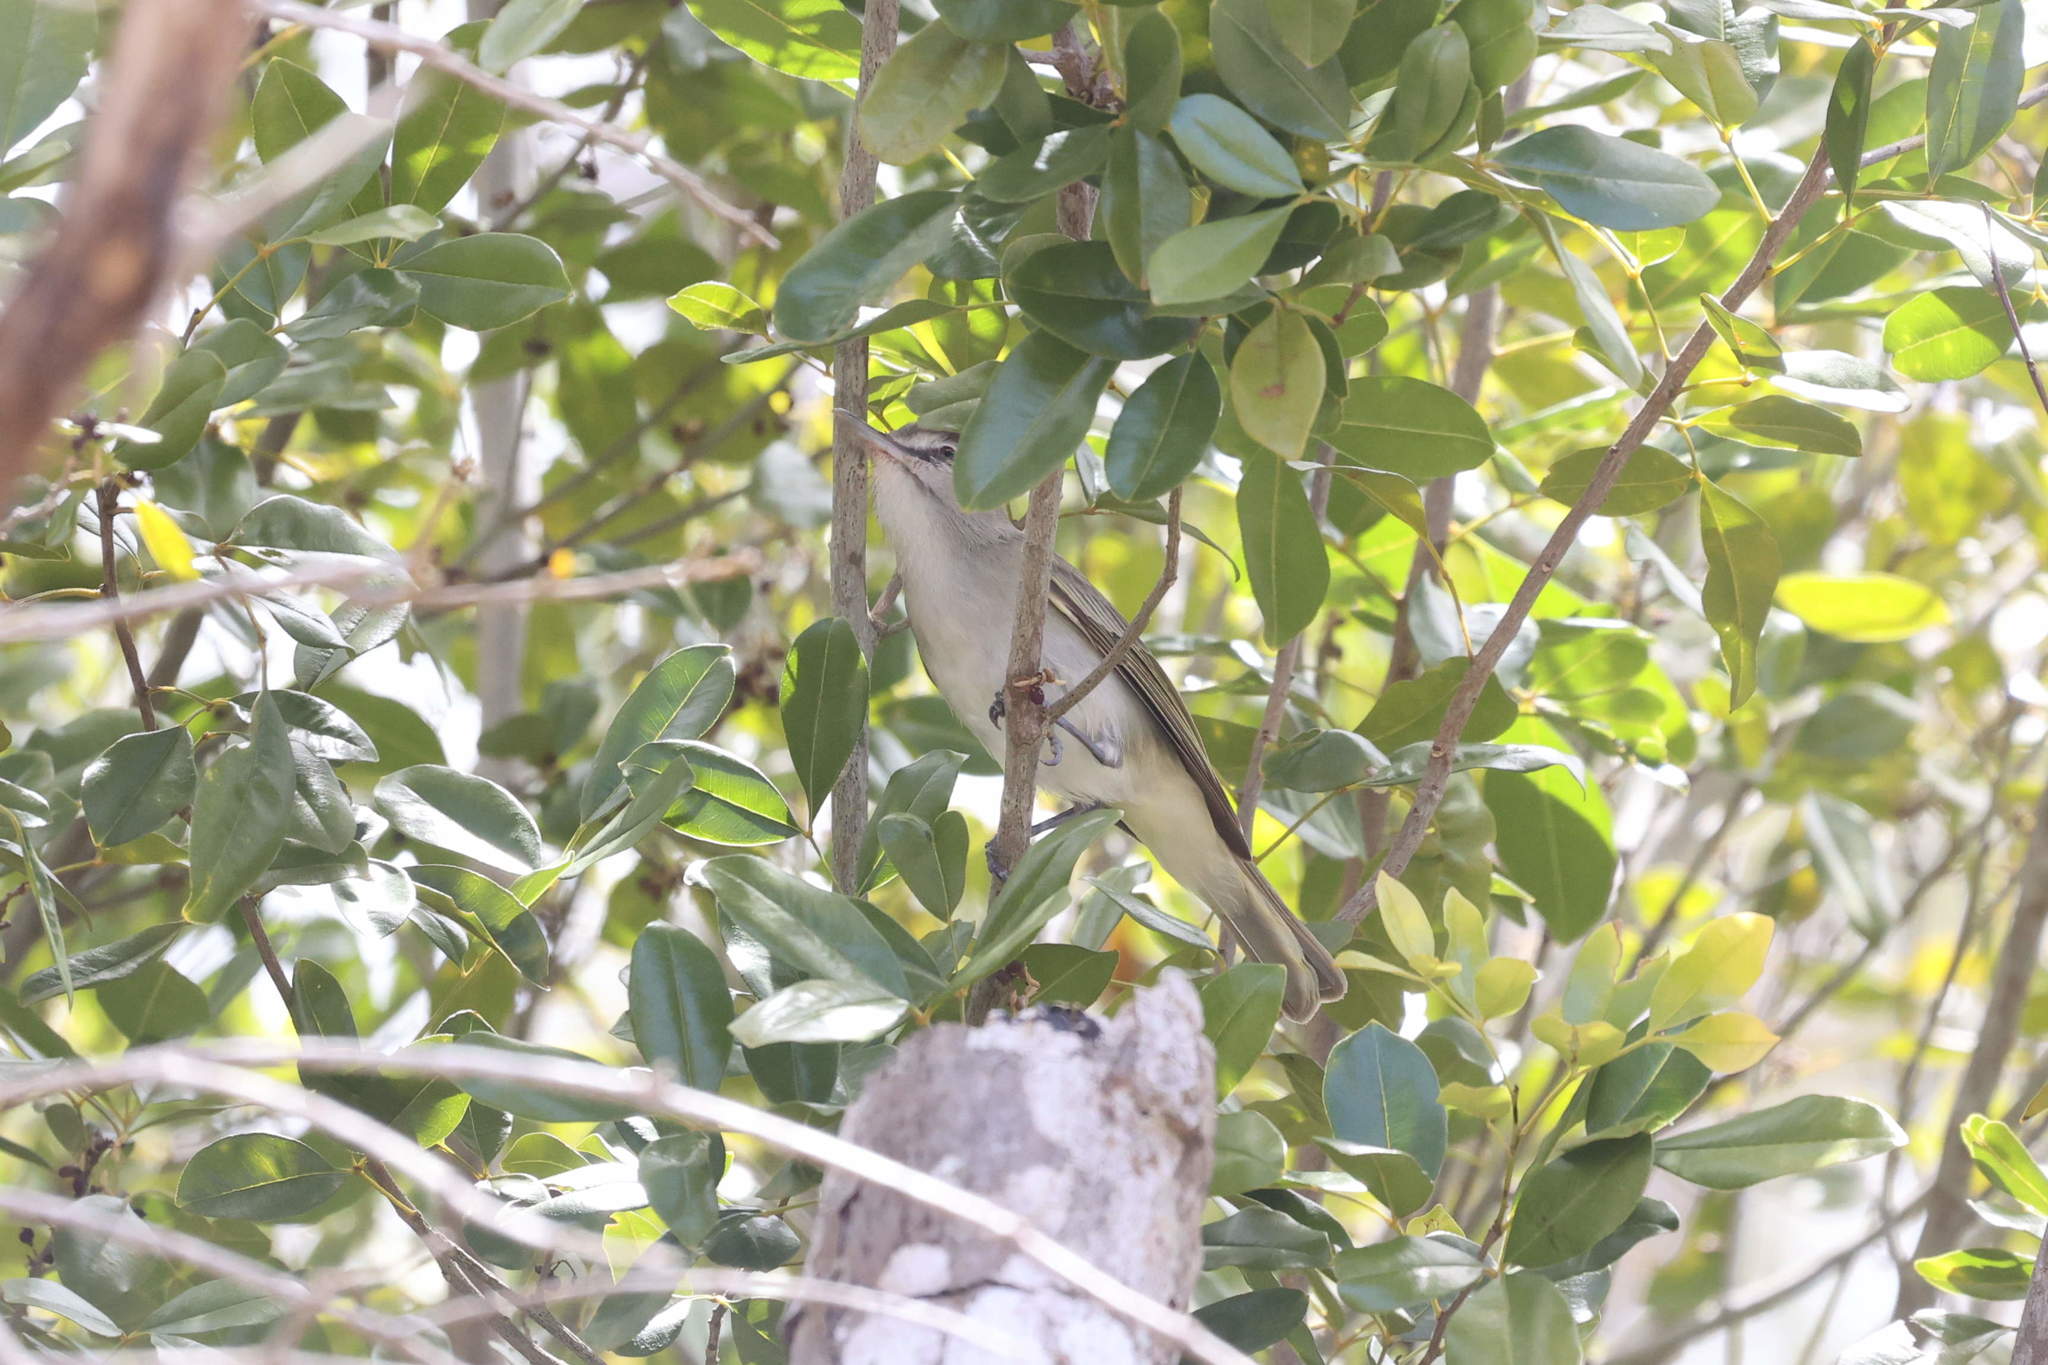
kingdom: Animalia
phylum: Chordata
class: Aves
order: Passeriformes
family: Vireonidae
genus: Vireo
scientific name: Vireo altiloquus
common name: Black-whiskered vireo
